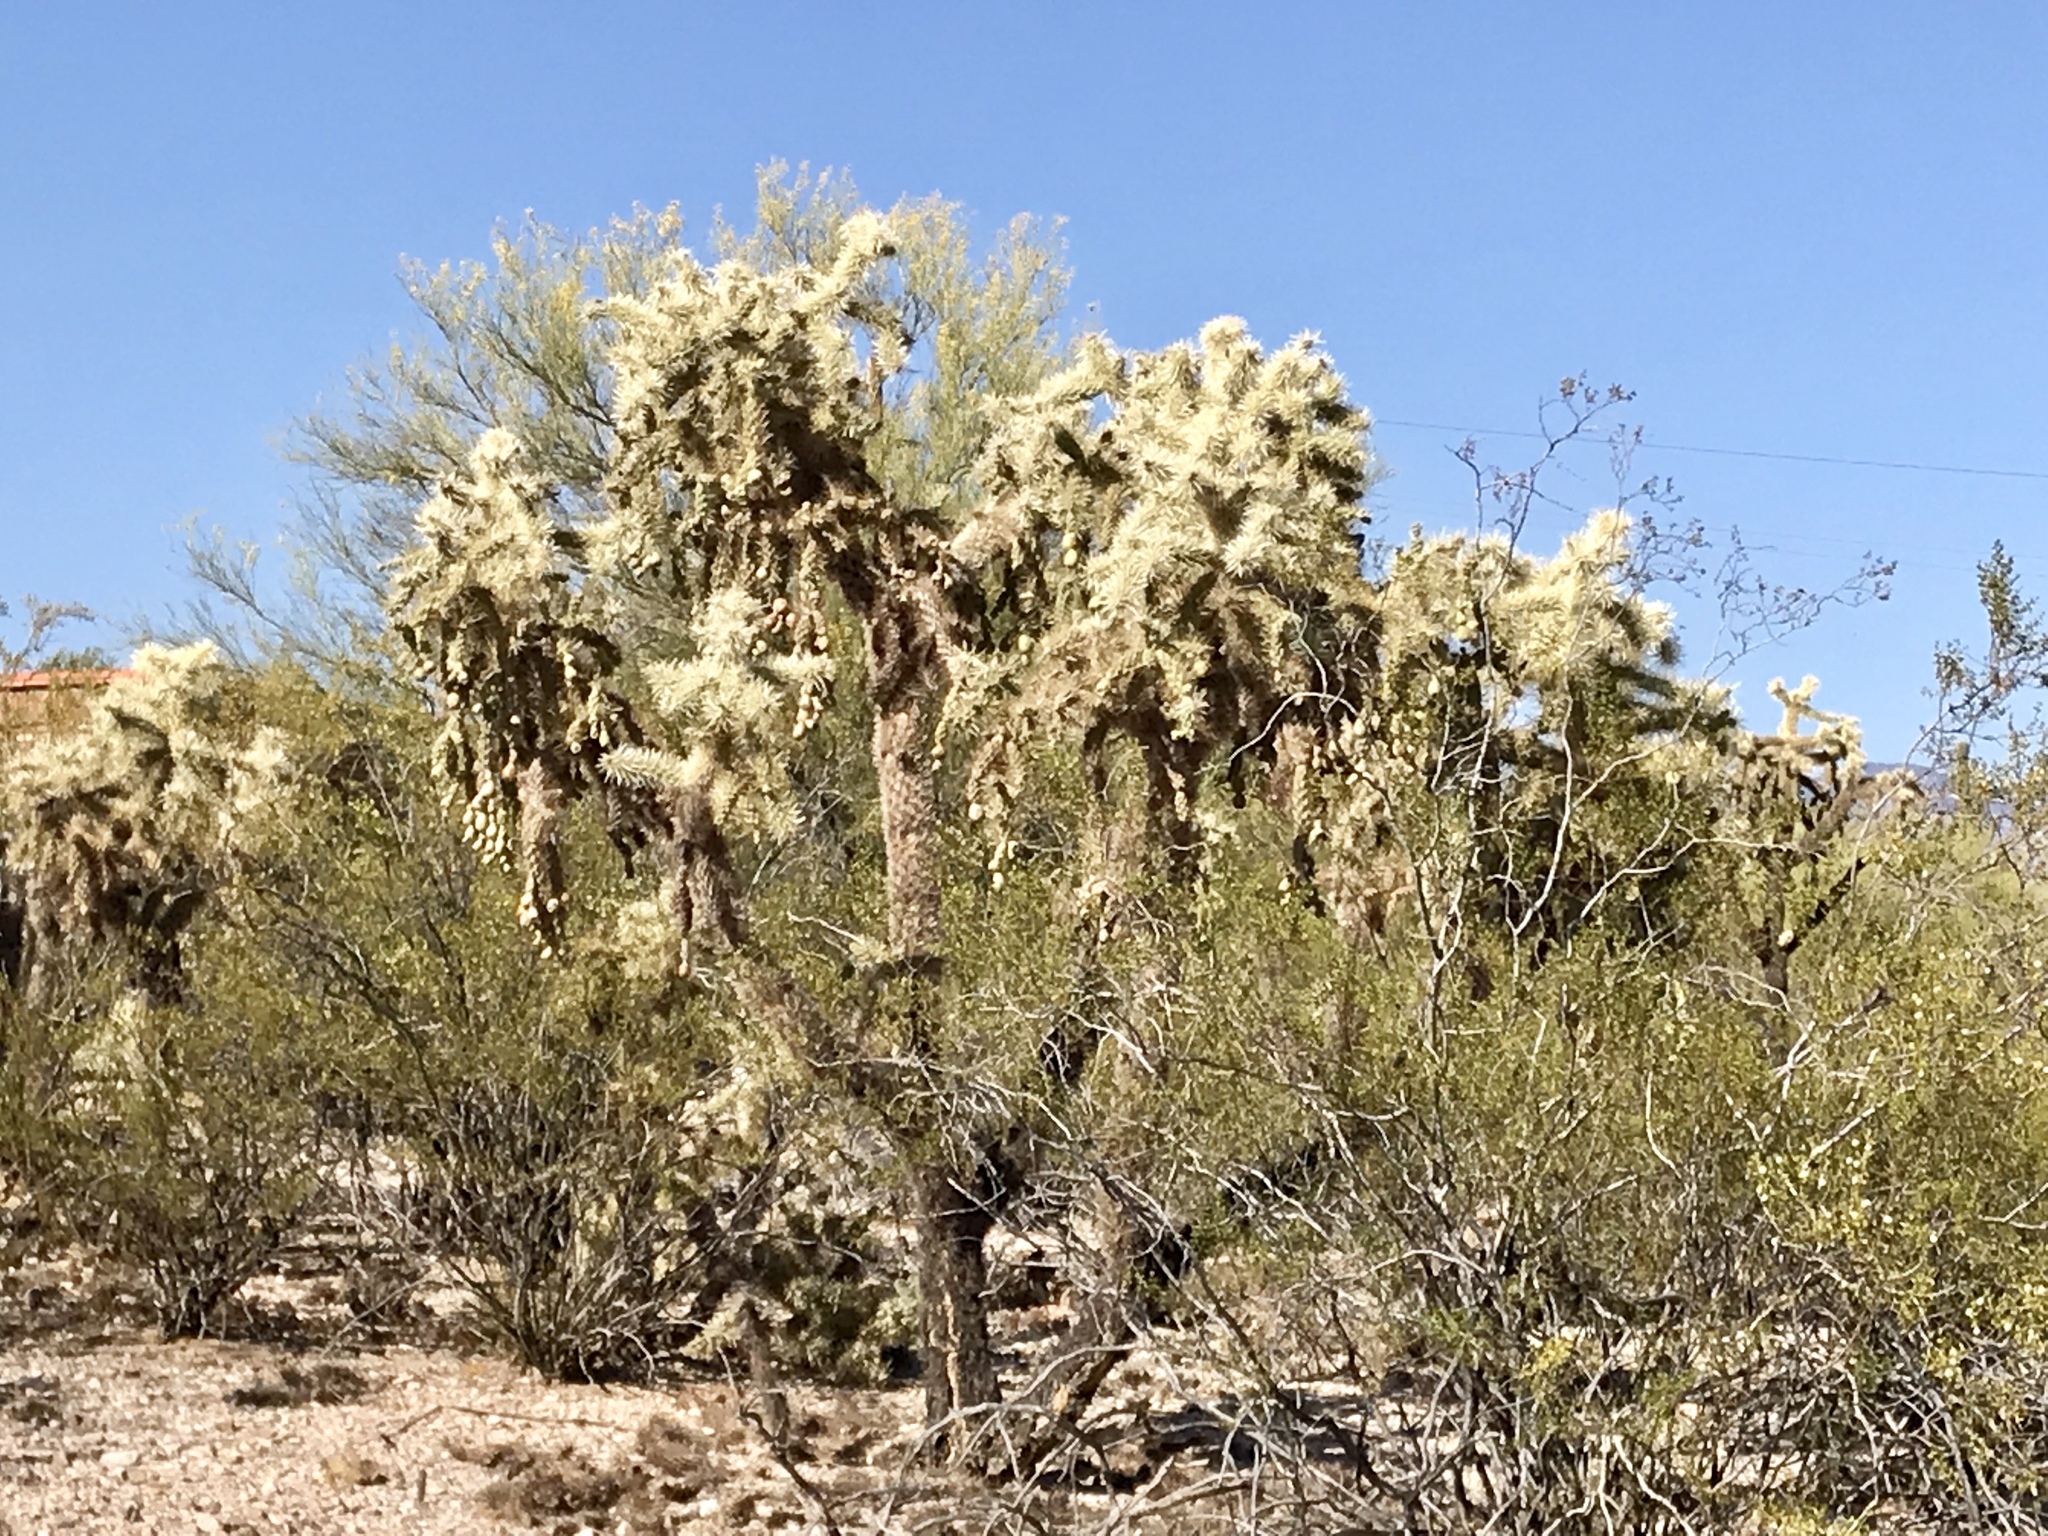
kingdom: Plantae
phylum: Tracheophyta
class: Magnoliopsida
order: Caryophyllales
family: Cactaceae
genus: Cylindropuntia
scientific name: Cylindropuntia fulgida
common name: Jumping cholla
